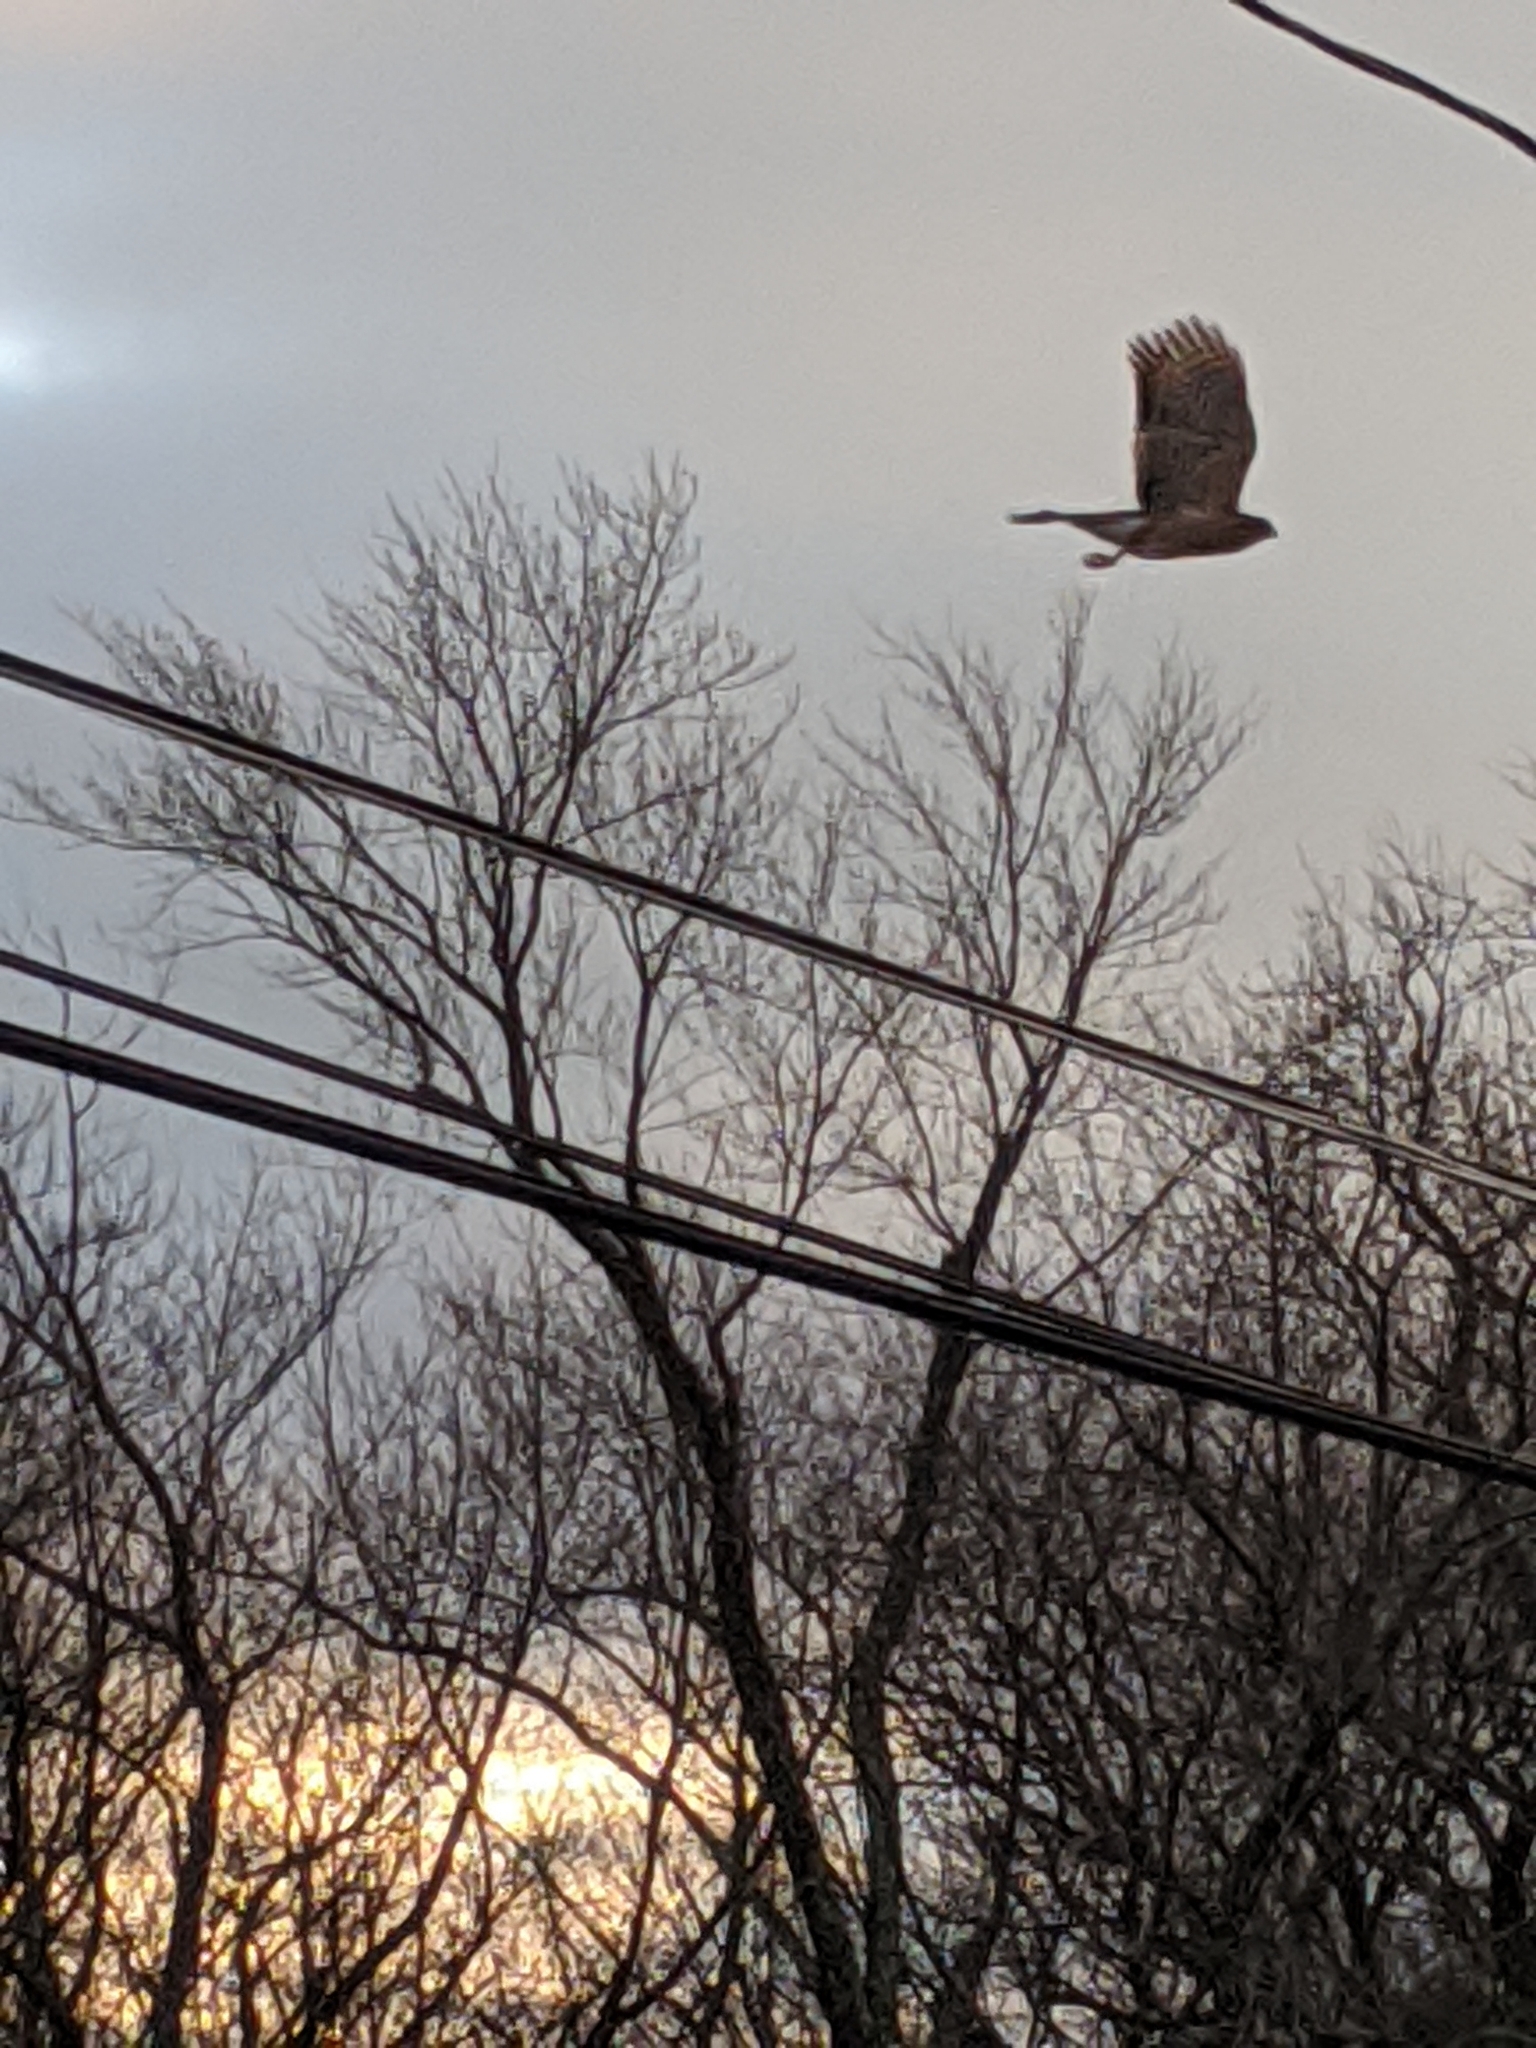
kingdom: Animalia
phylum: Chordata
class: Aves
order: Accipitriformes
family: Accipitridae
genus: Accipiter
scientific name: Accipiter cooperii
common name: Cooper's hawk
